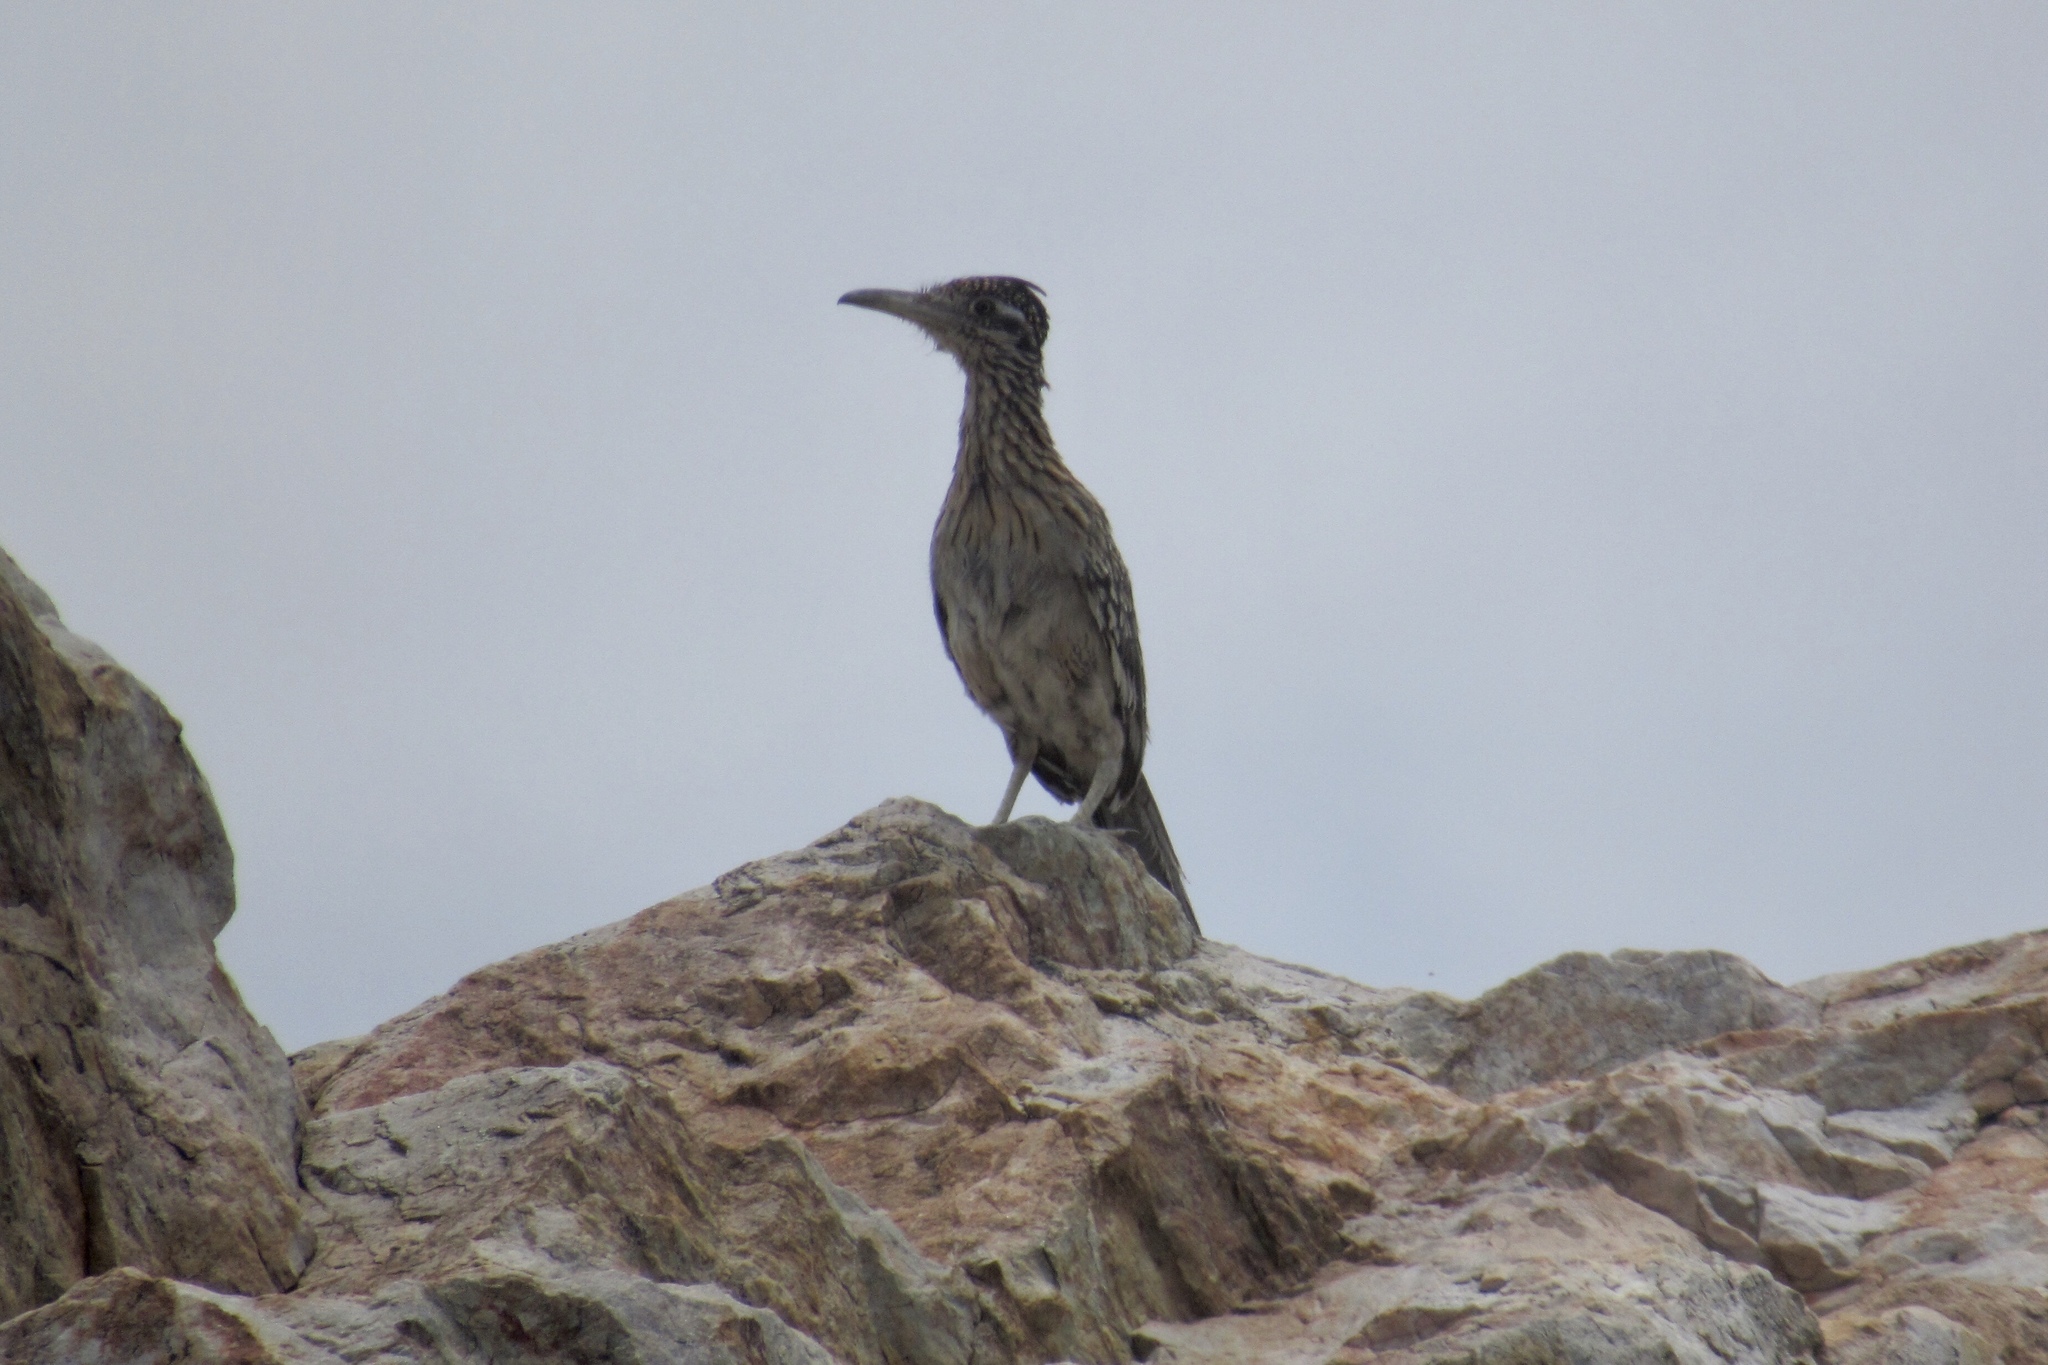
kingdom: Animalia
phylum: Chordata
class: Aves
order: Cuculiformes
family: Cuculidae
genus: Geococcyx
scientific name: Geococcyx californianus
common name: Greater roadrunner
